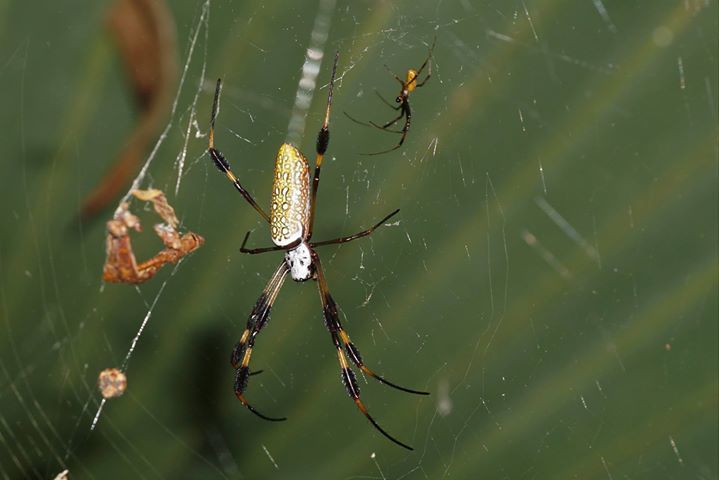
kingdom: Animalia
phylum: Arthropoda
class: Arachnida
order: Araneae
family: Araneidae
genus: Trichonephila
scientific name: Trichonephila clavipes
